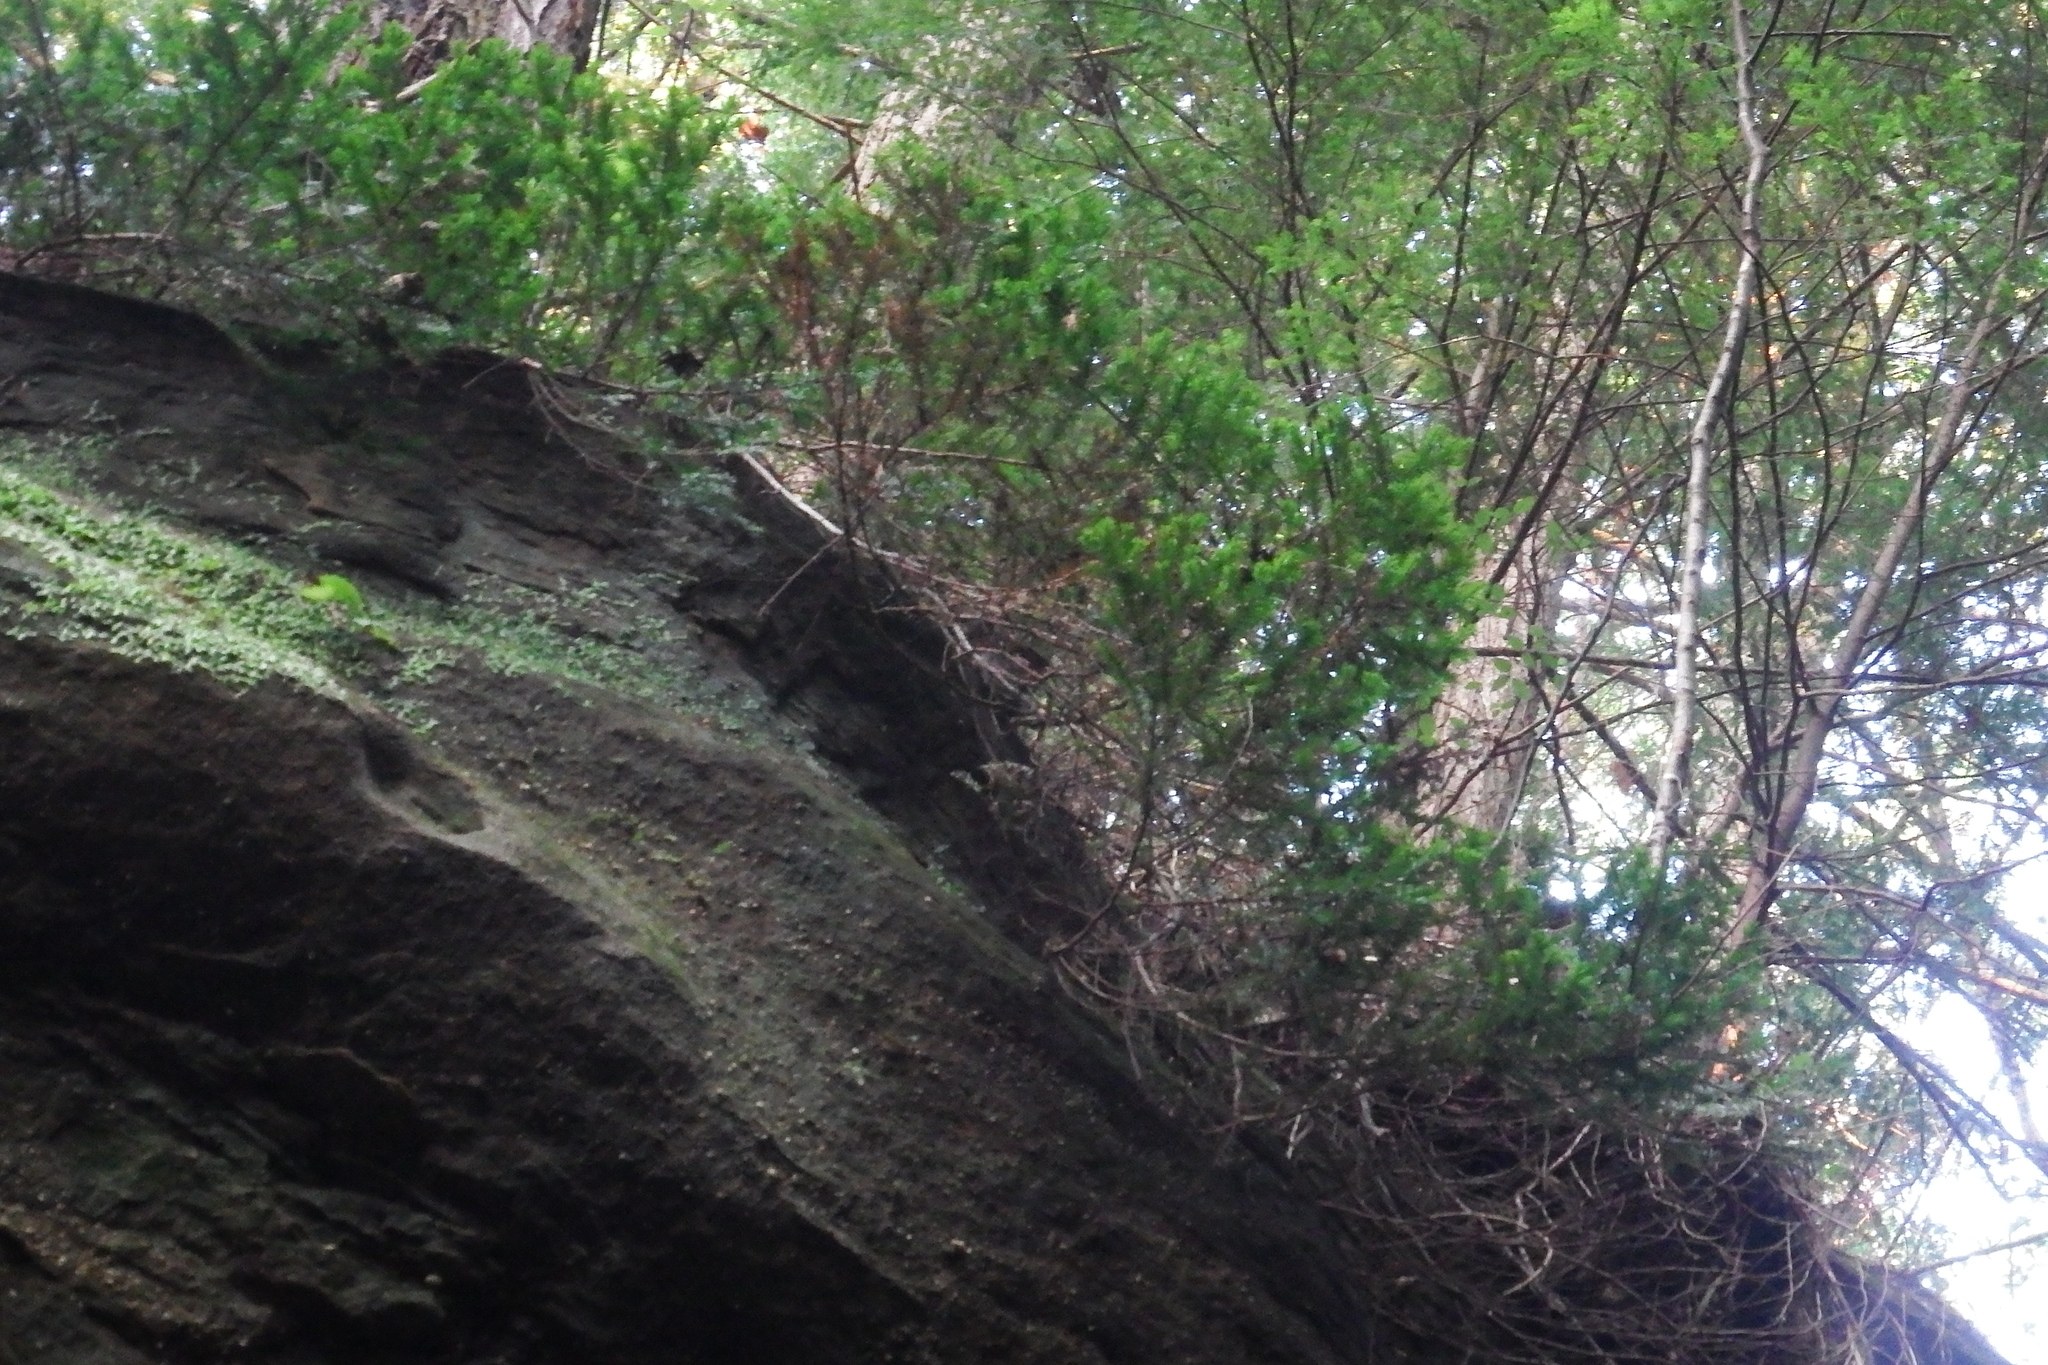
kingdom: Plantae
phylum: Tracheophyta
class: Pinopsida
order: Pinales
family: Taxaceae
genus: Taxus
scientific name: Taxus canadensis
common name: American yew
